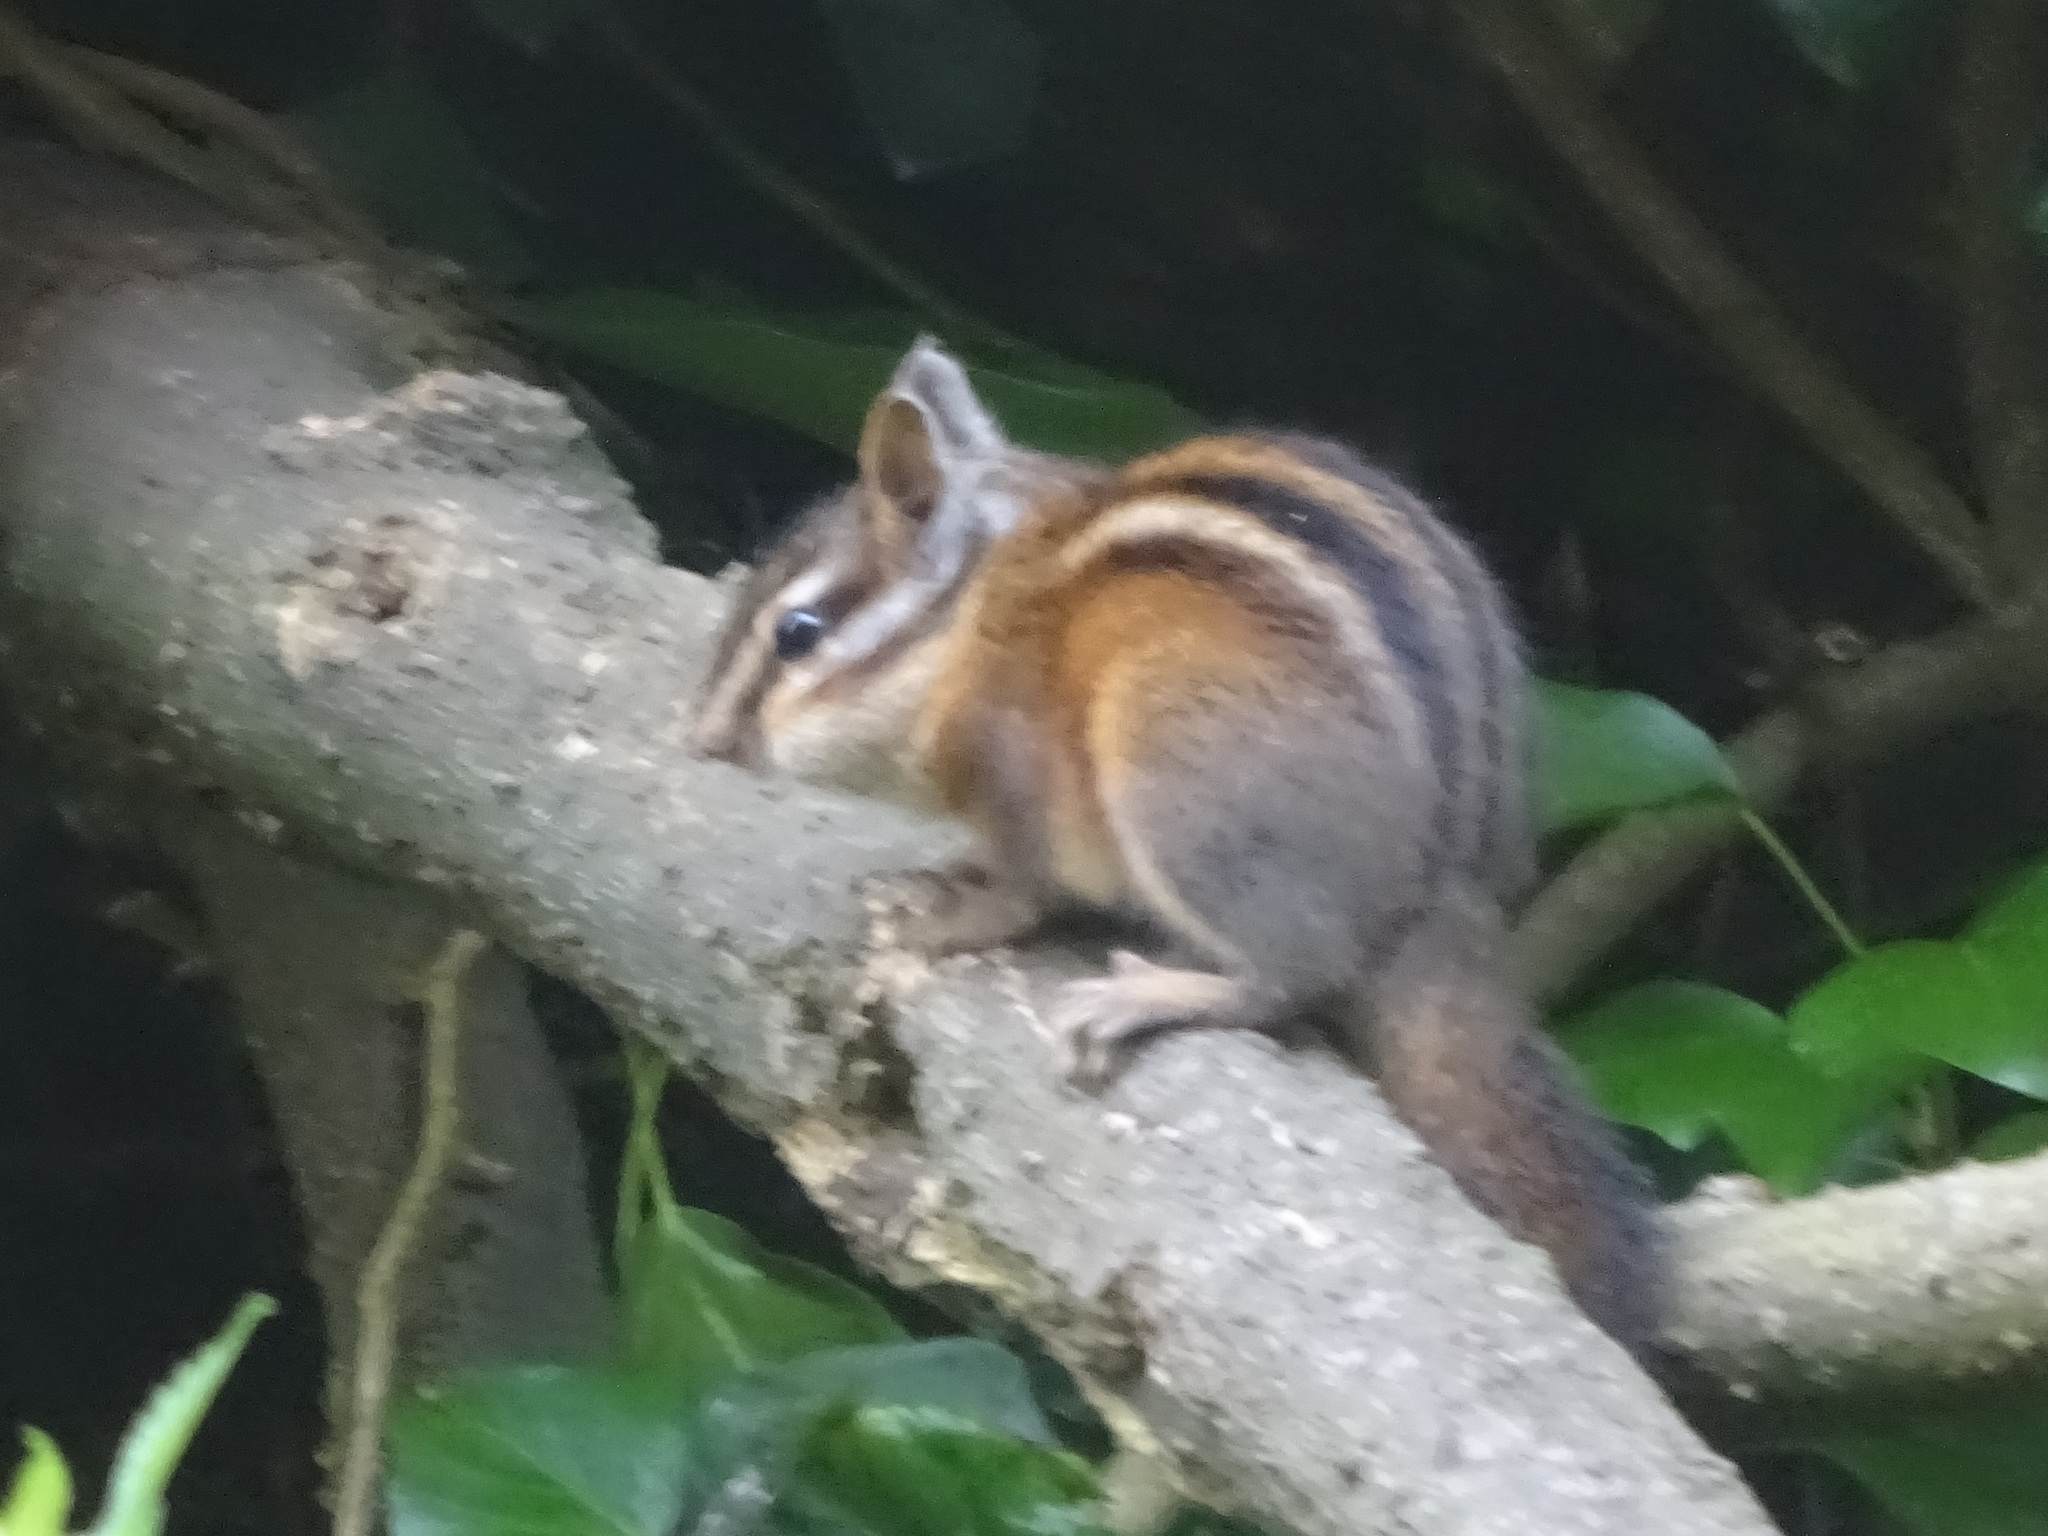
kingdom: Animalia
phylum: Chordata
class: Mammalia
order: Rodentia
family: Sciuridae
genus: Tamias
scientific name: Tamias sonomae
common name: Sonoma chipmunk
